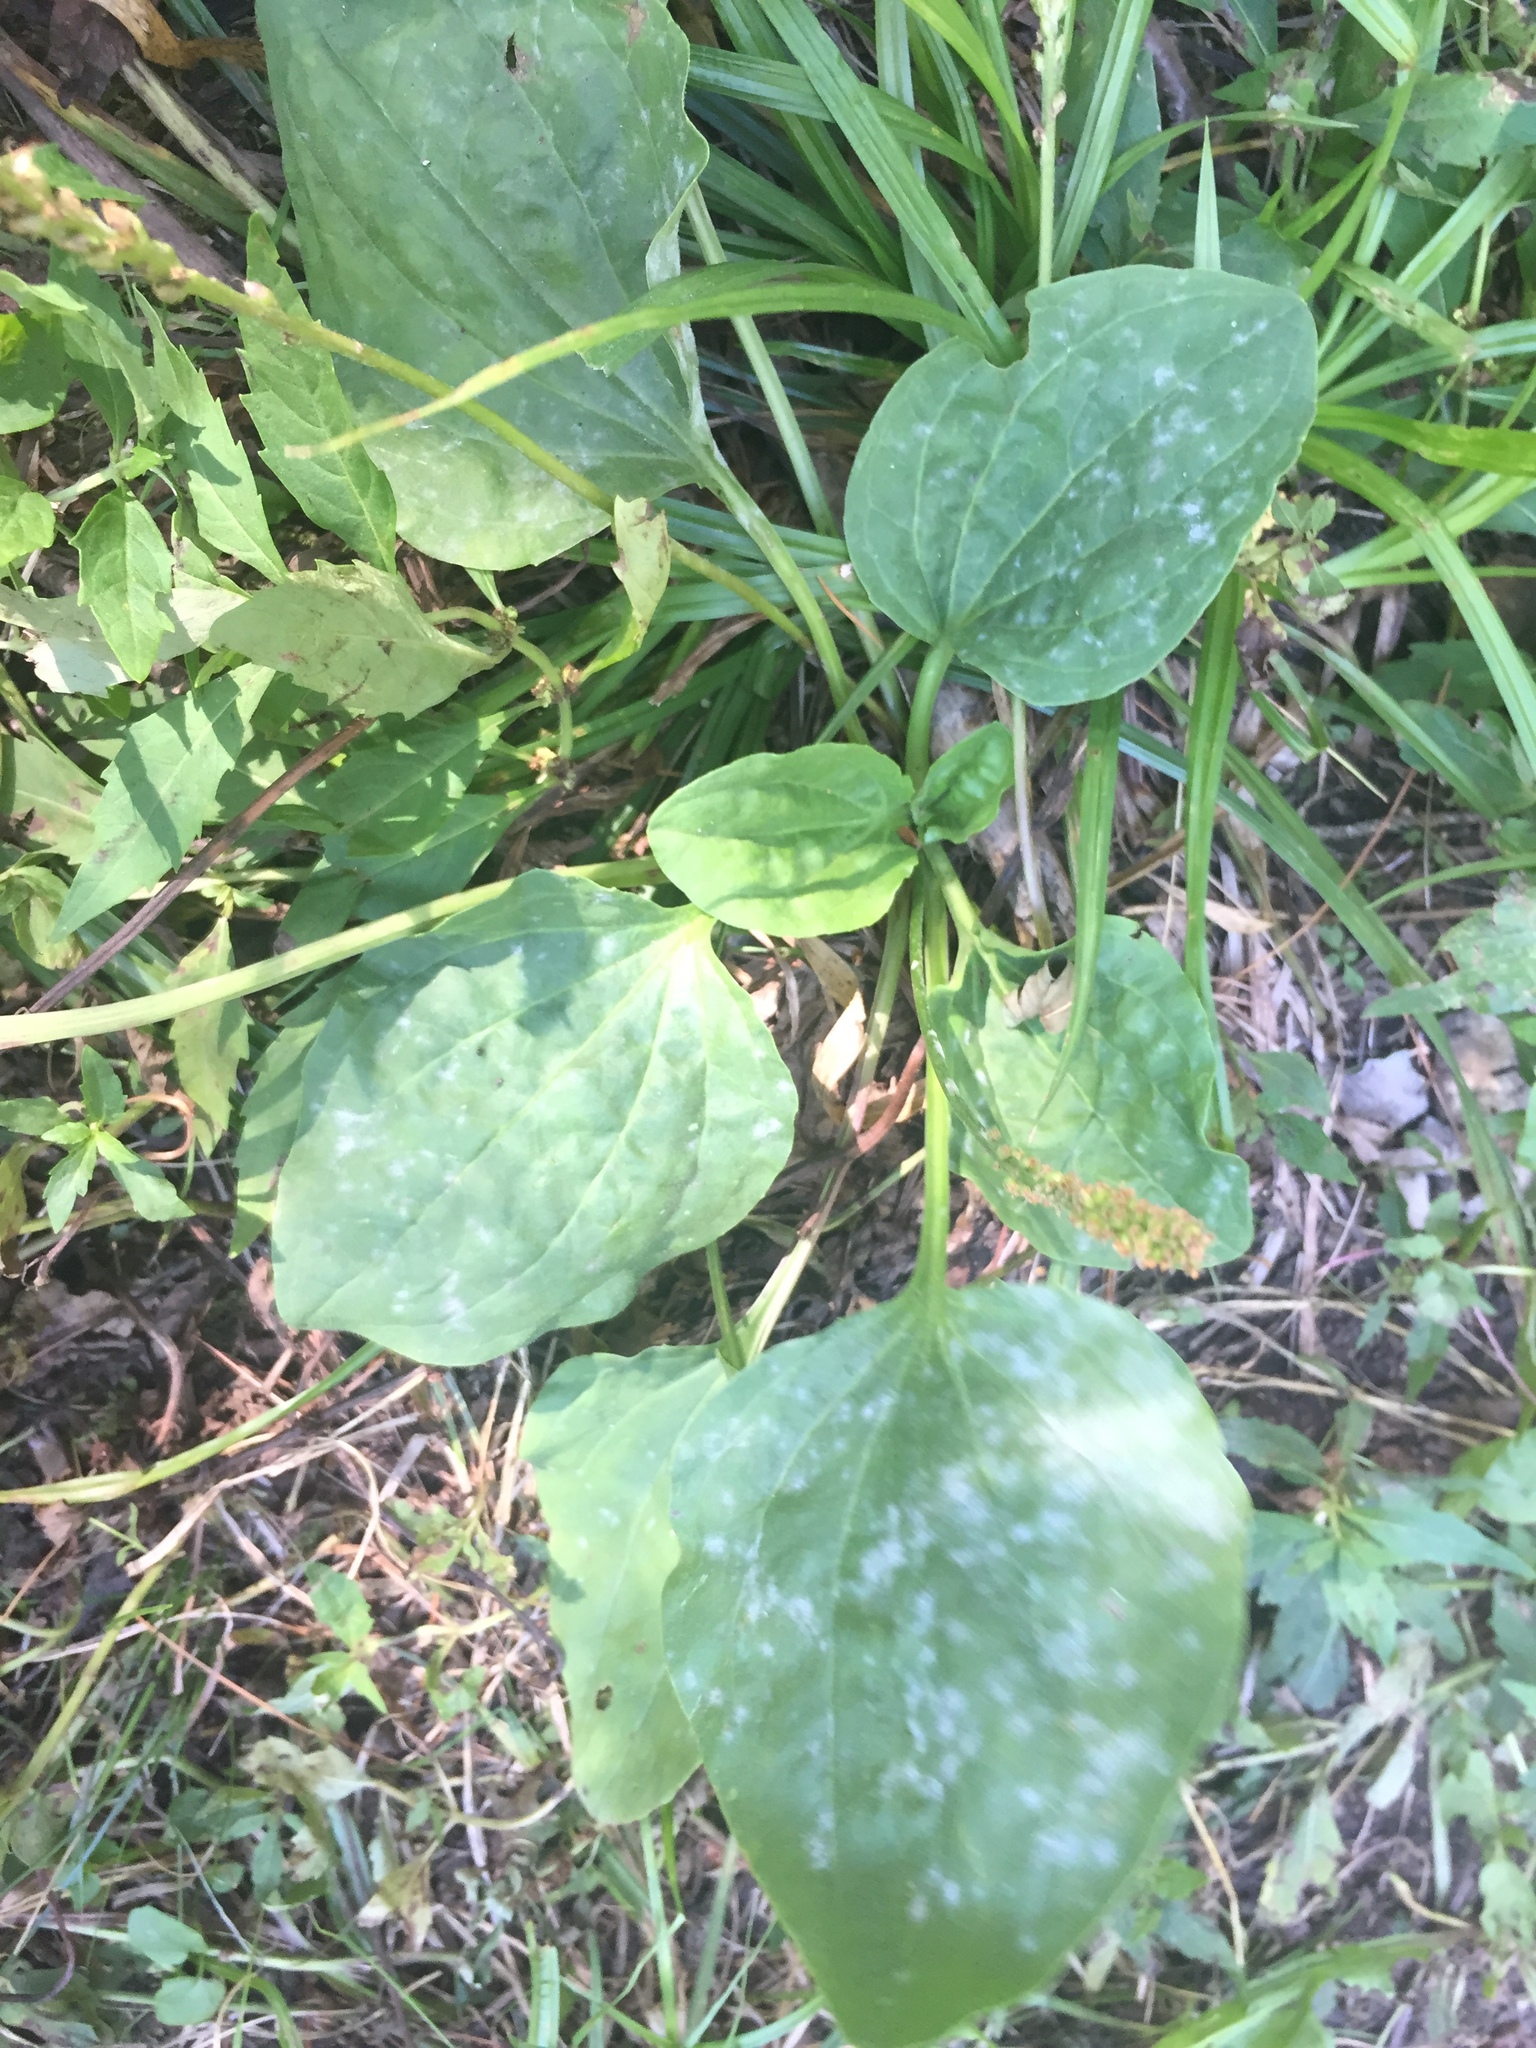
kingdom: Plantae
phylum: Tracheophyta
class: Magnoliopsida
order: Lamiales
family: Plantaginaceae
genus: Plantago
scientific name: Plantago major
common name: Common plantain
